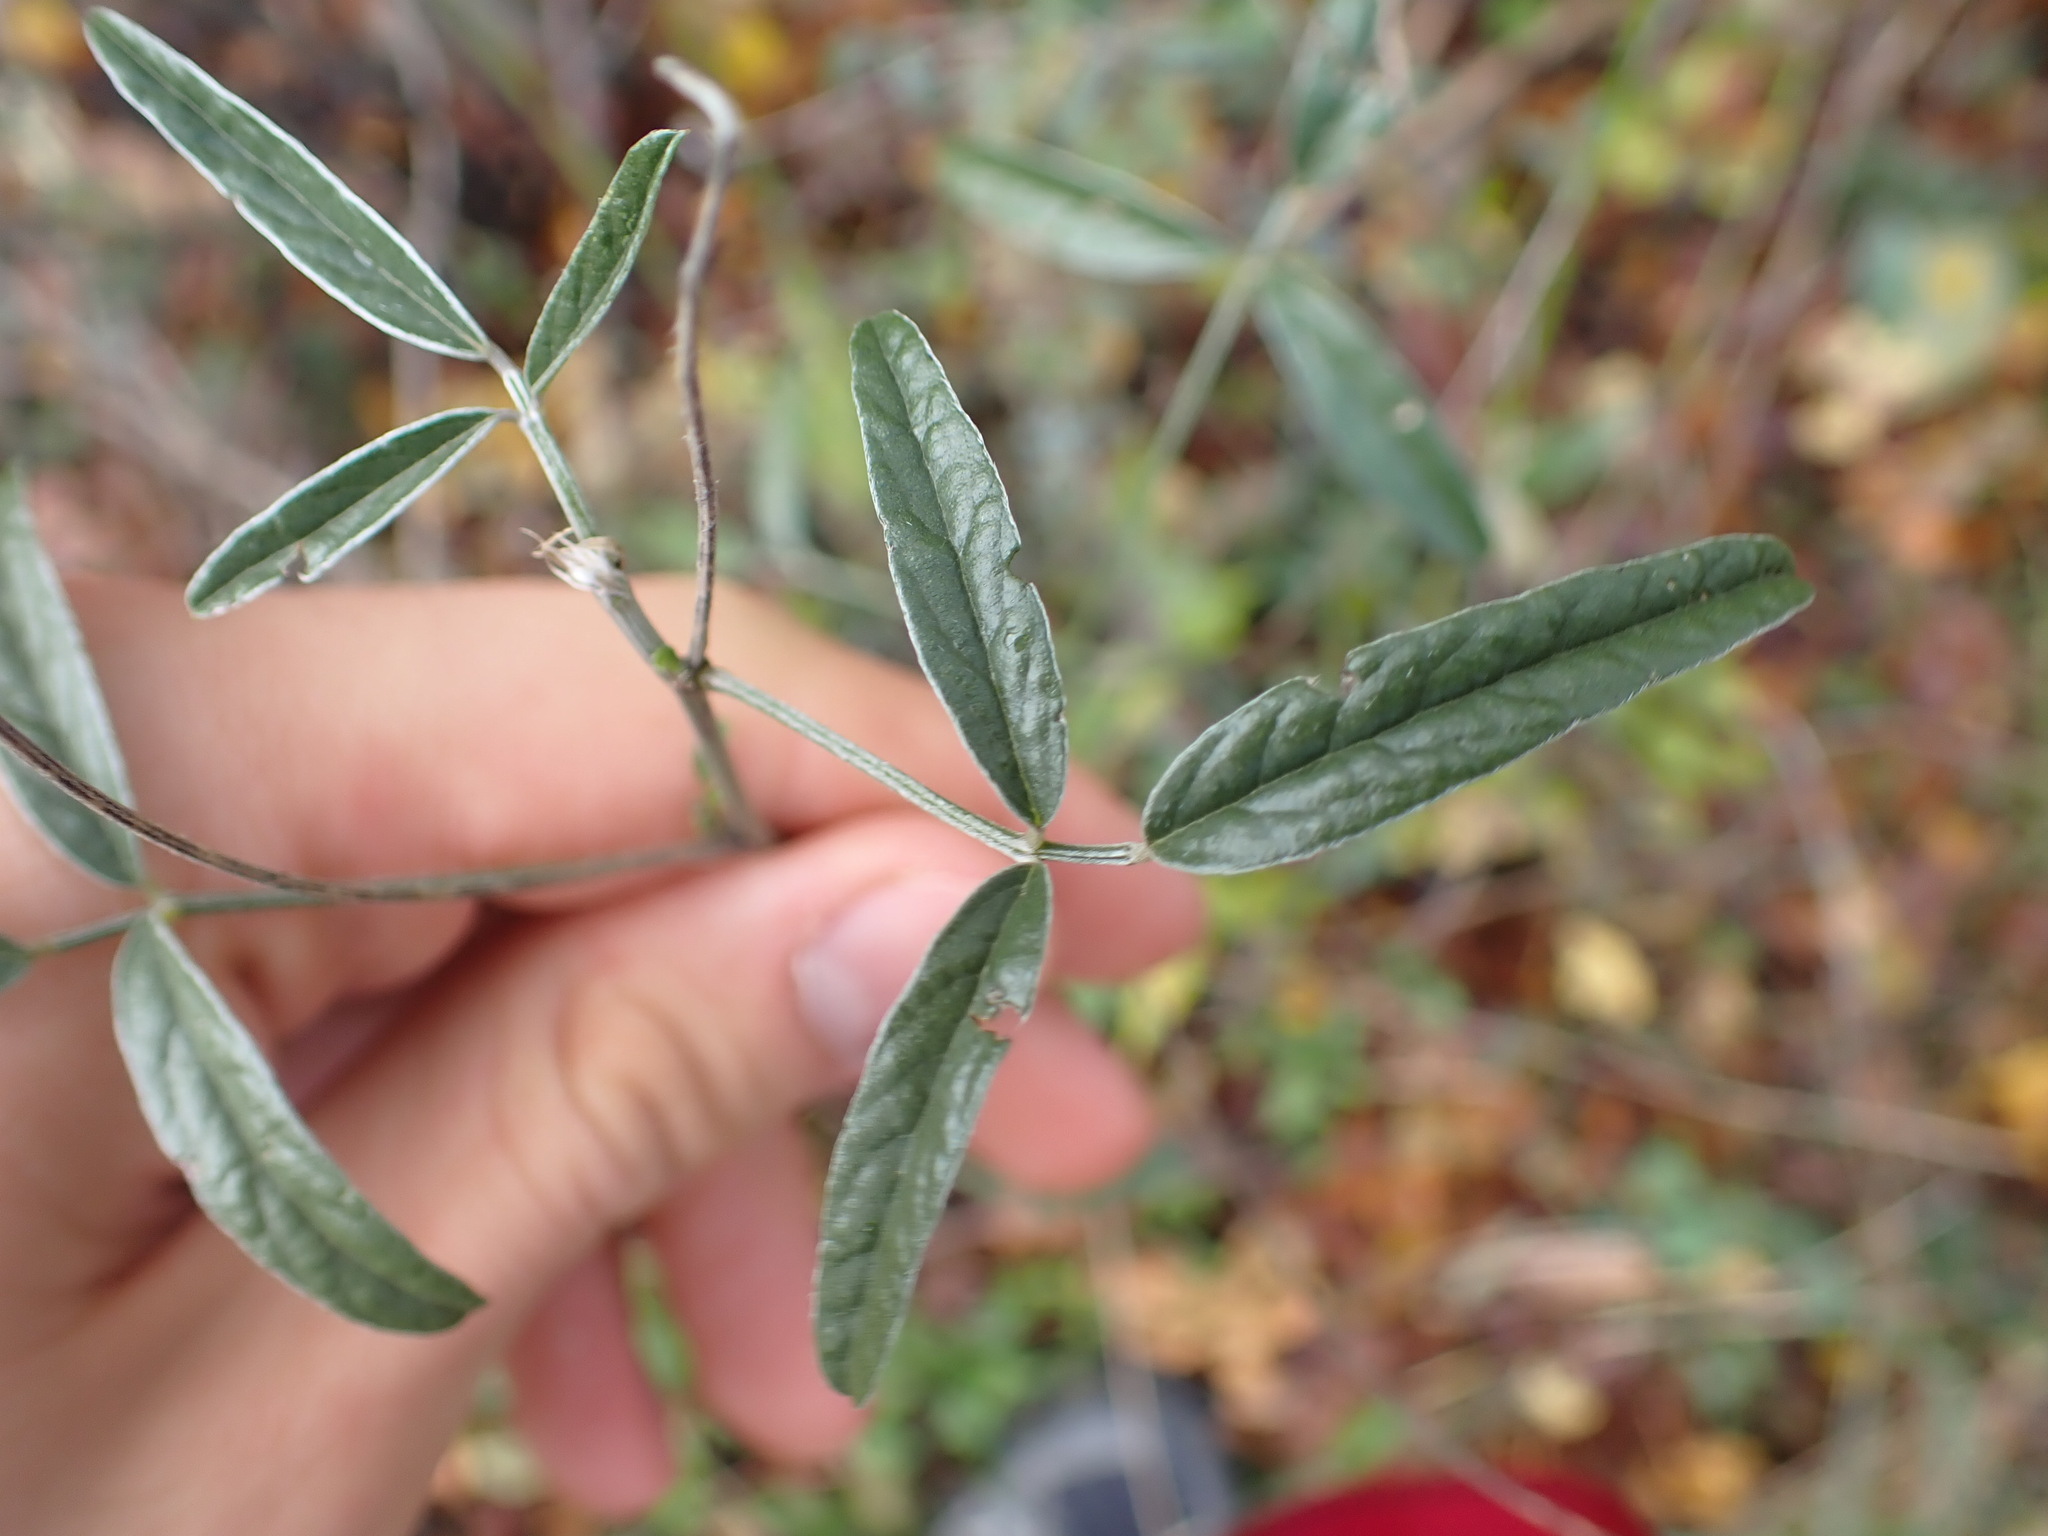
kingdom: Plantae
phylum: Tracheophyta
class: Magnoliopsida
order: Fabales
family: Fabaceae
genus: Bituminaria
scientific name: Bituminaria bituminosa
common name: Arabian pea
